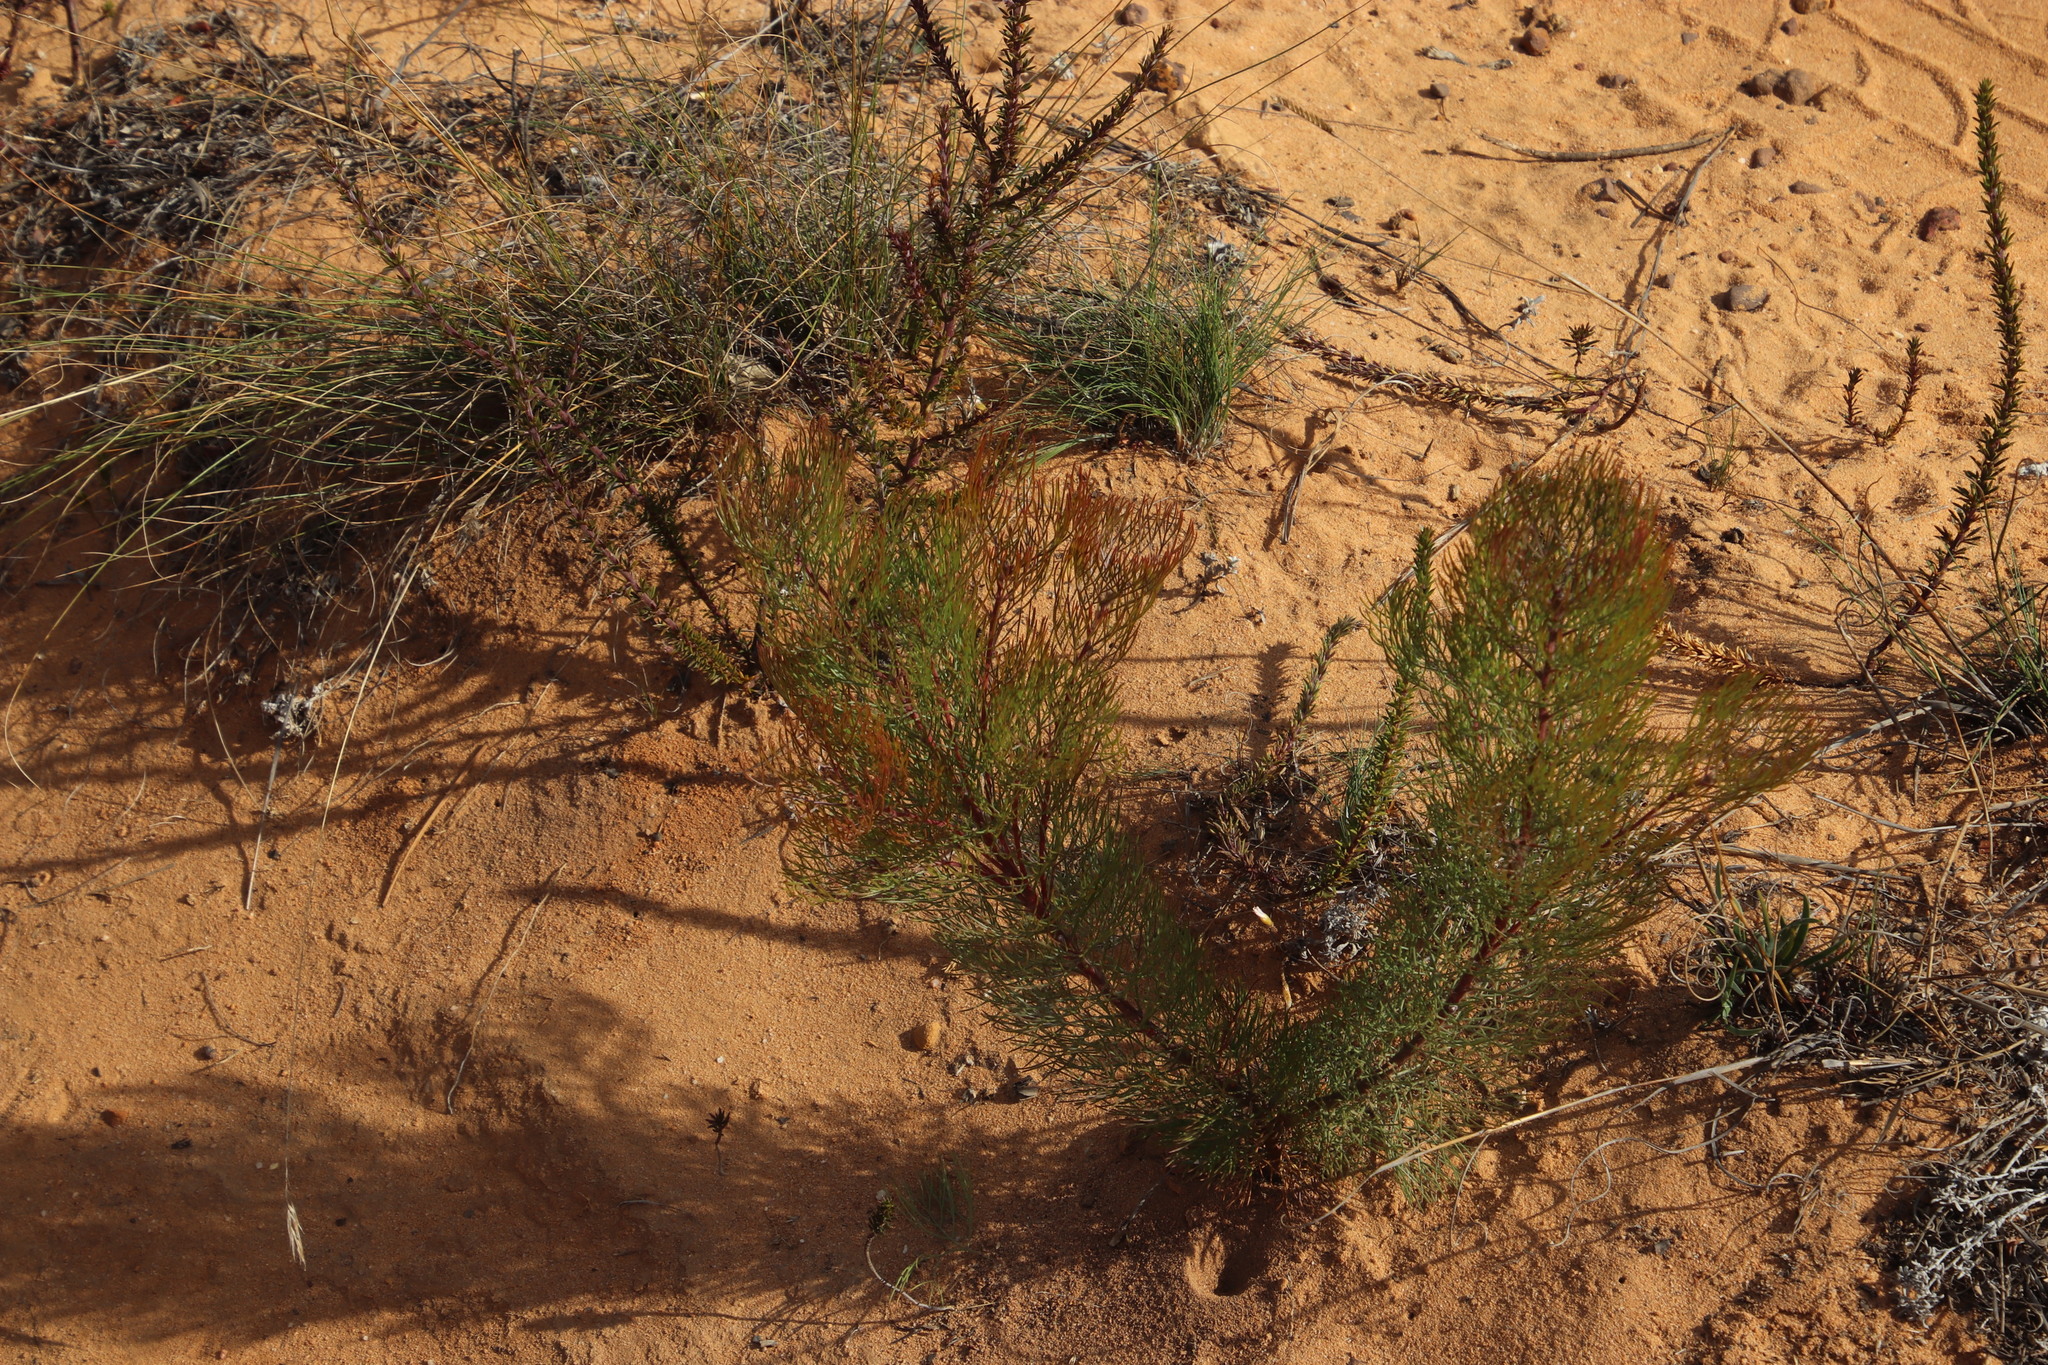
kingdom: Plantae
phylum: Tracheophyta
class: Magnoliopsida
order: Proteales
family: Proteaceae
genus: Serruria
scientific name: Serruria fasciflora
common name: Common pin spiderhead
